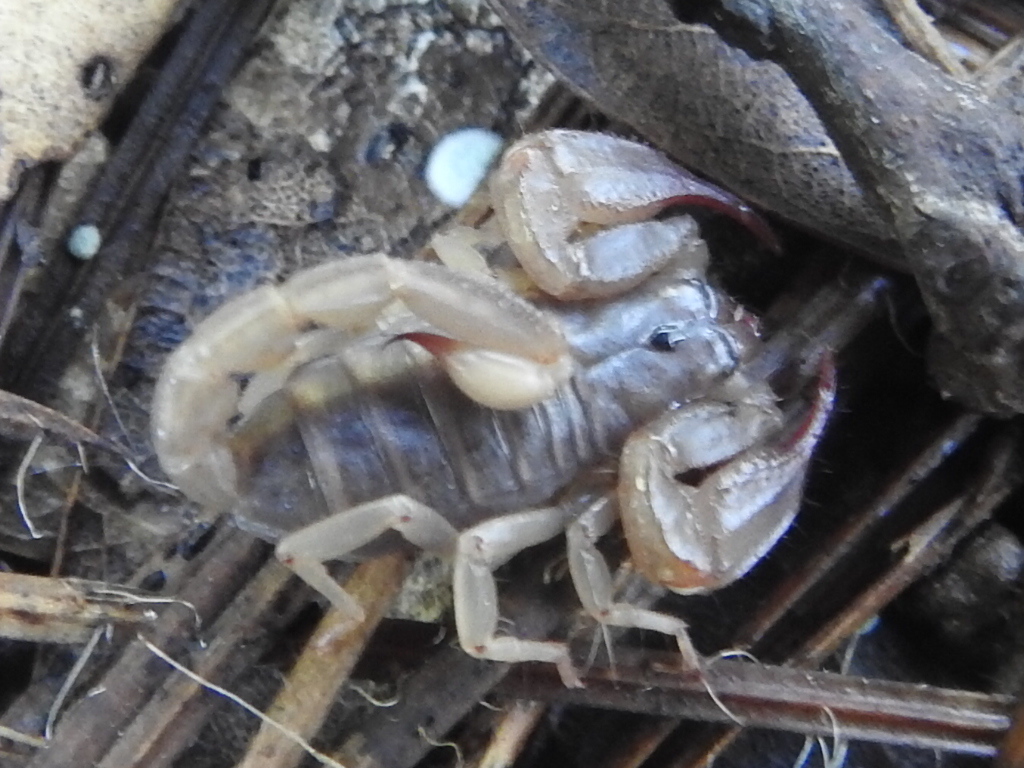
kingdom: Animalia
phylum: Arthropoda
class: Arachnida
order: Scorpiones
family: Chactidae
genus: Uroctonus
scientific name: Uroctonus mordax
